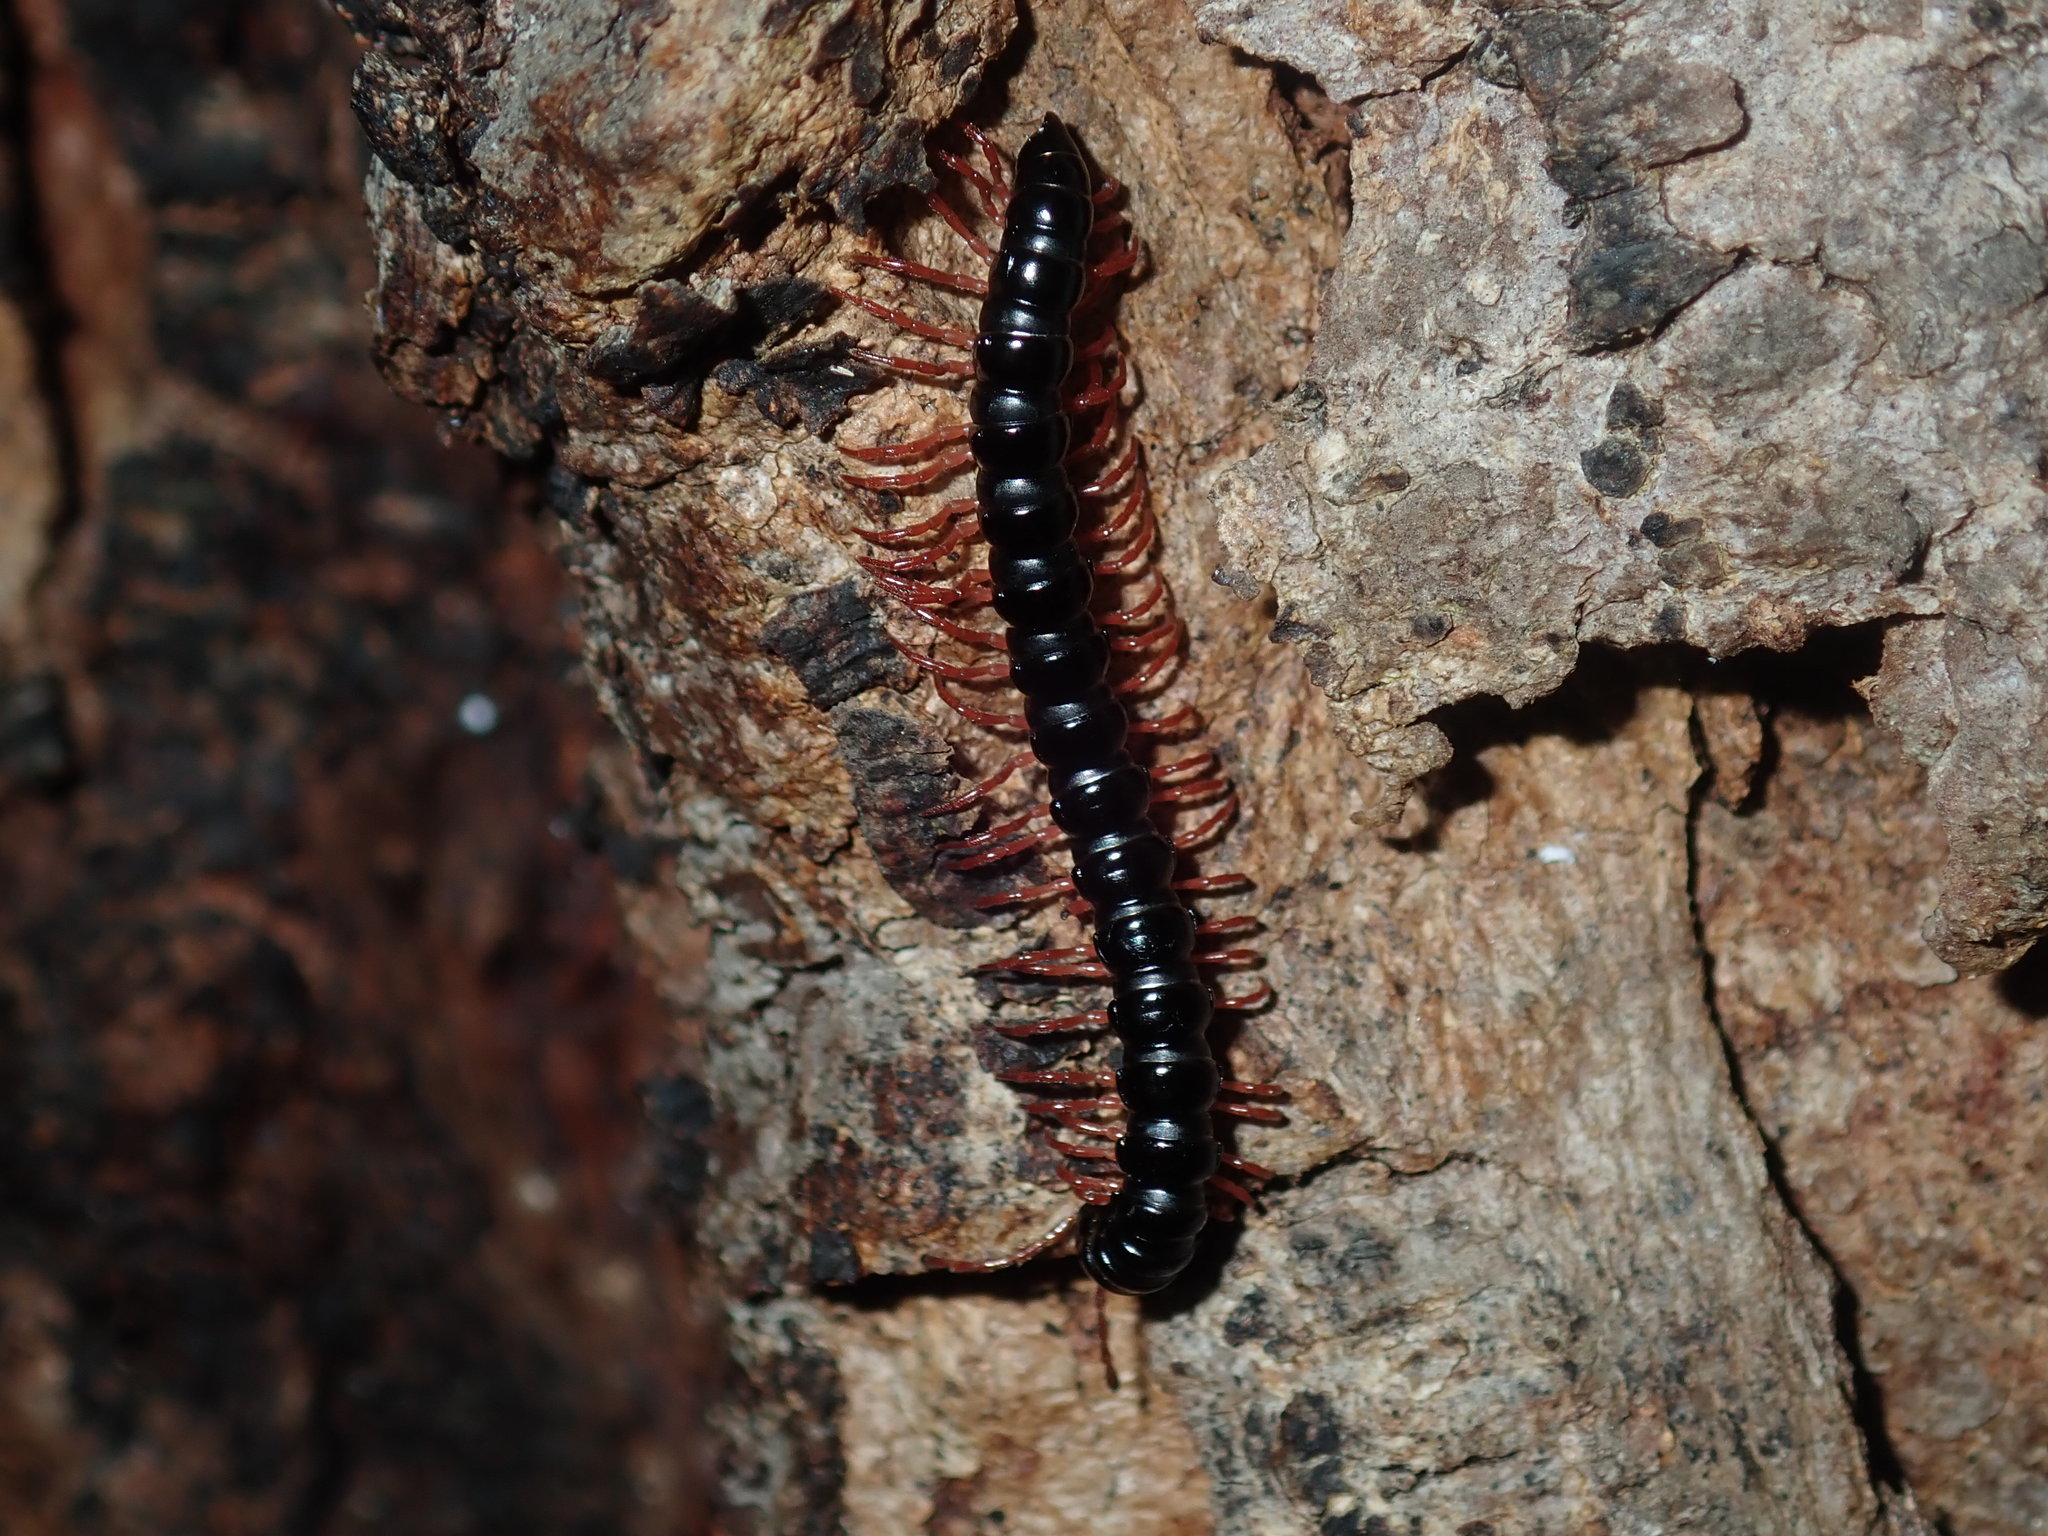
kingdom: Animalia
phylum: Arthropoda
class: Diplopoda
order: Polydesmida
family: Paradoxosomatidae
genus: Heterocladosoma
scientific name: Heterocladosoma
